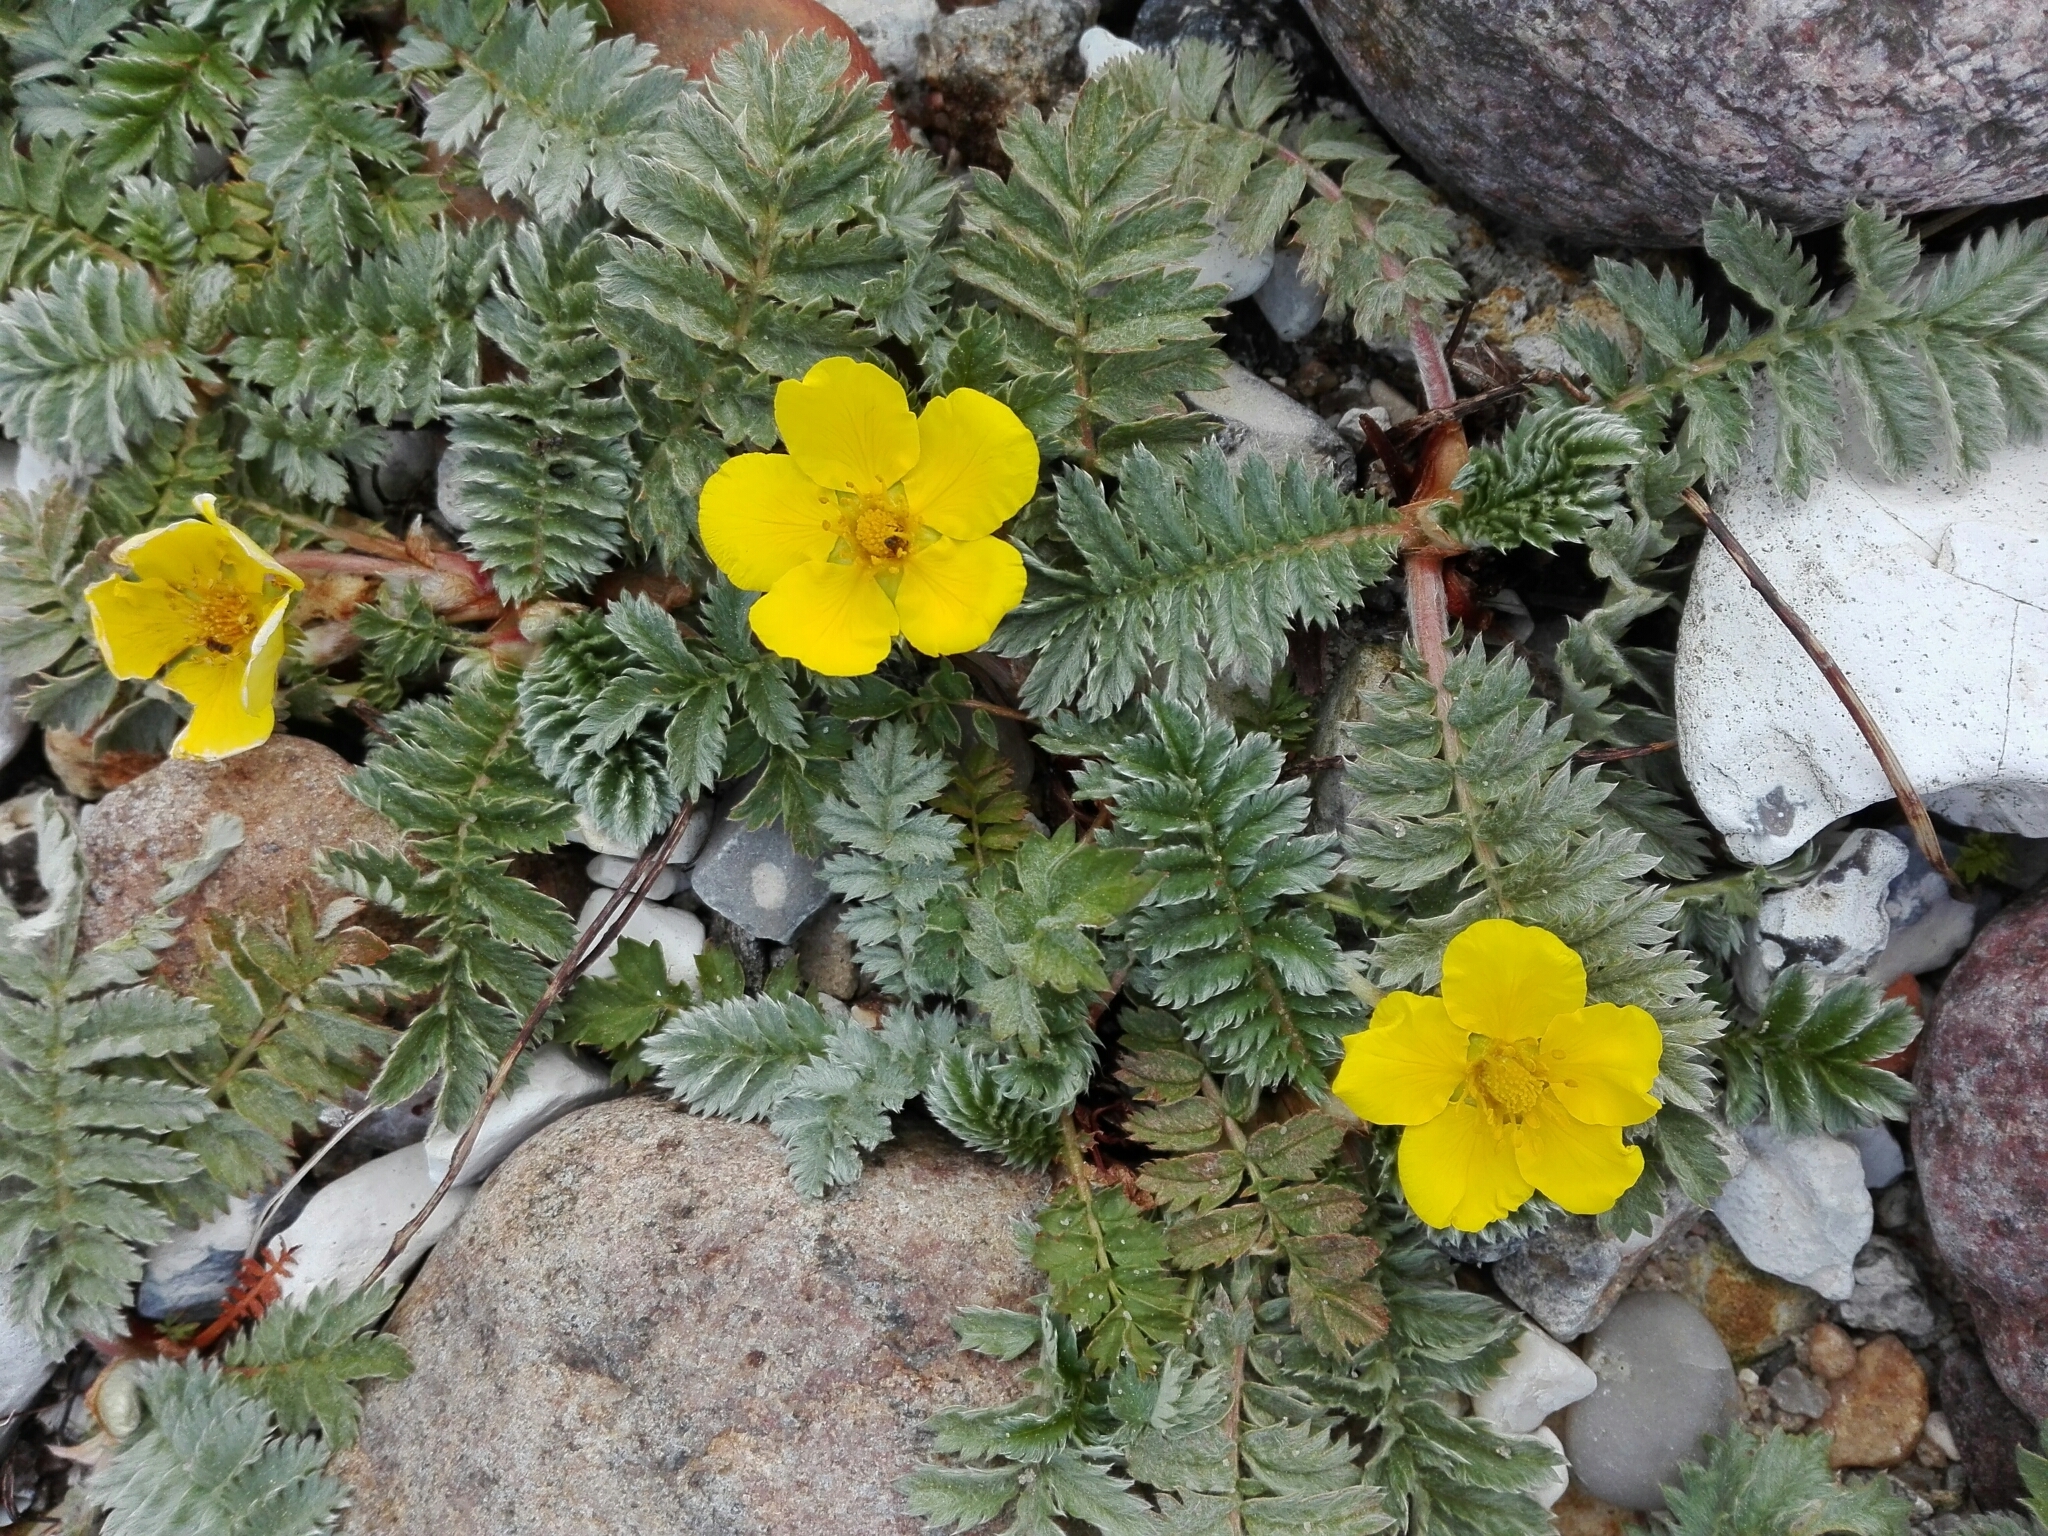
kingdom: Plantae
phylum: Tracheophyta
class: Magnoliopsida
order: Rosales
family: Rosaceae
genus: Argentina
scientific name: Argentina anserina
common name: Common silverweed
